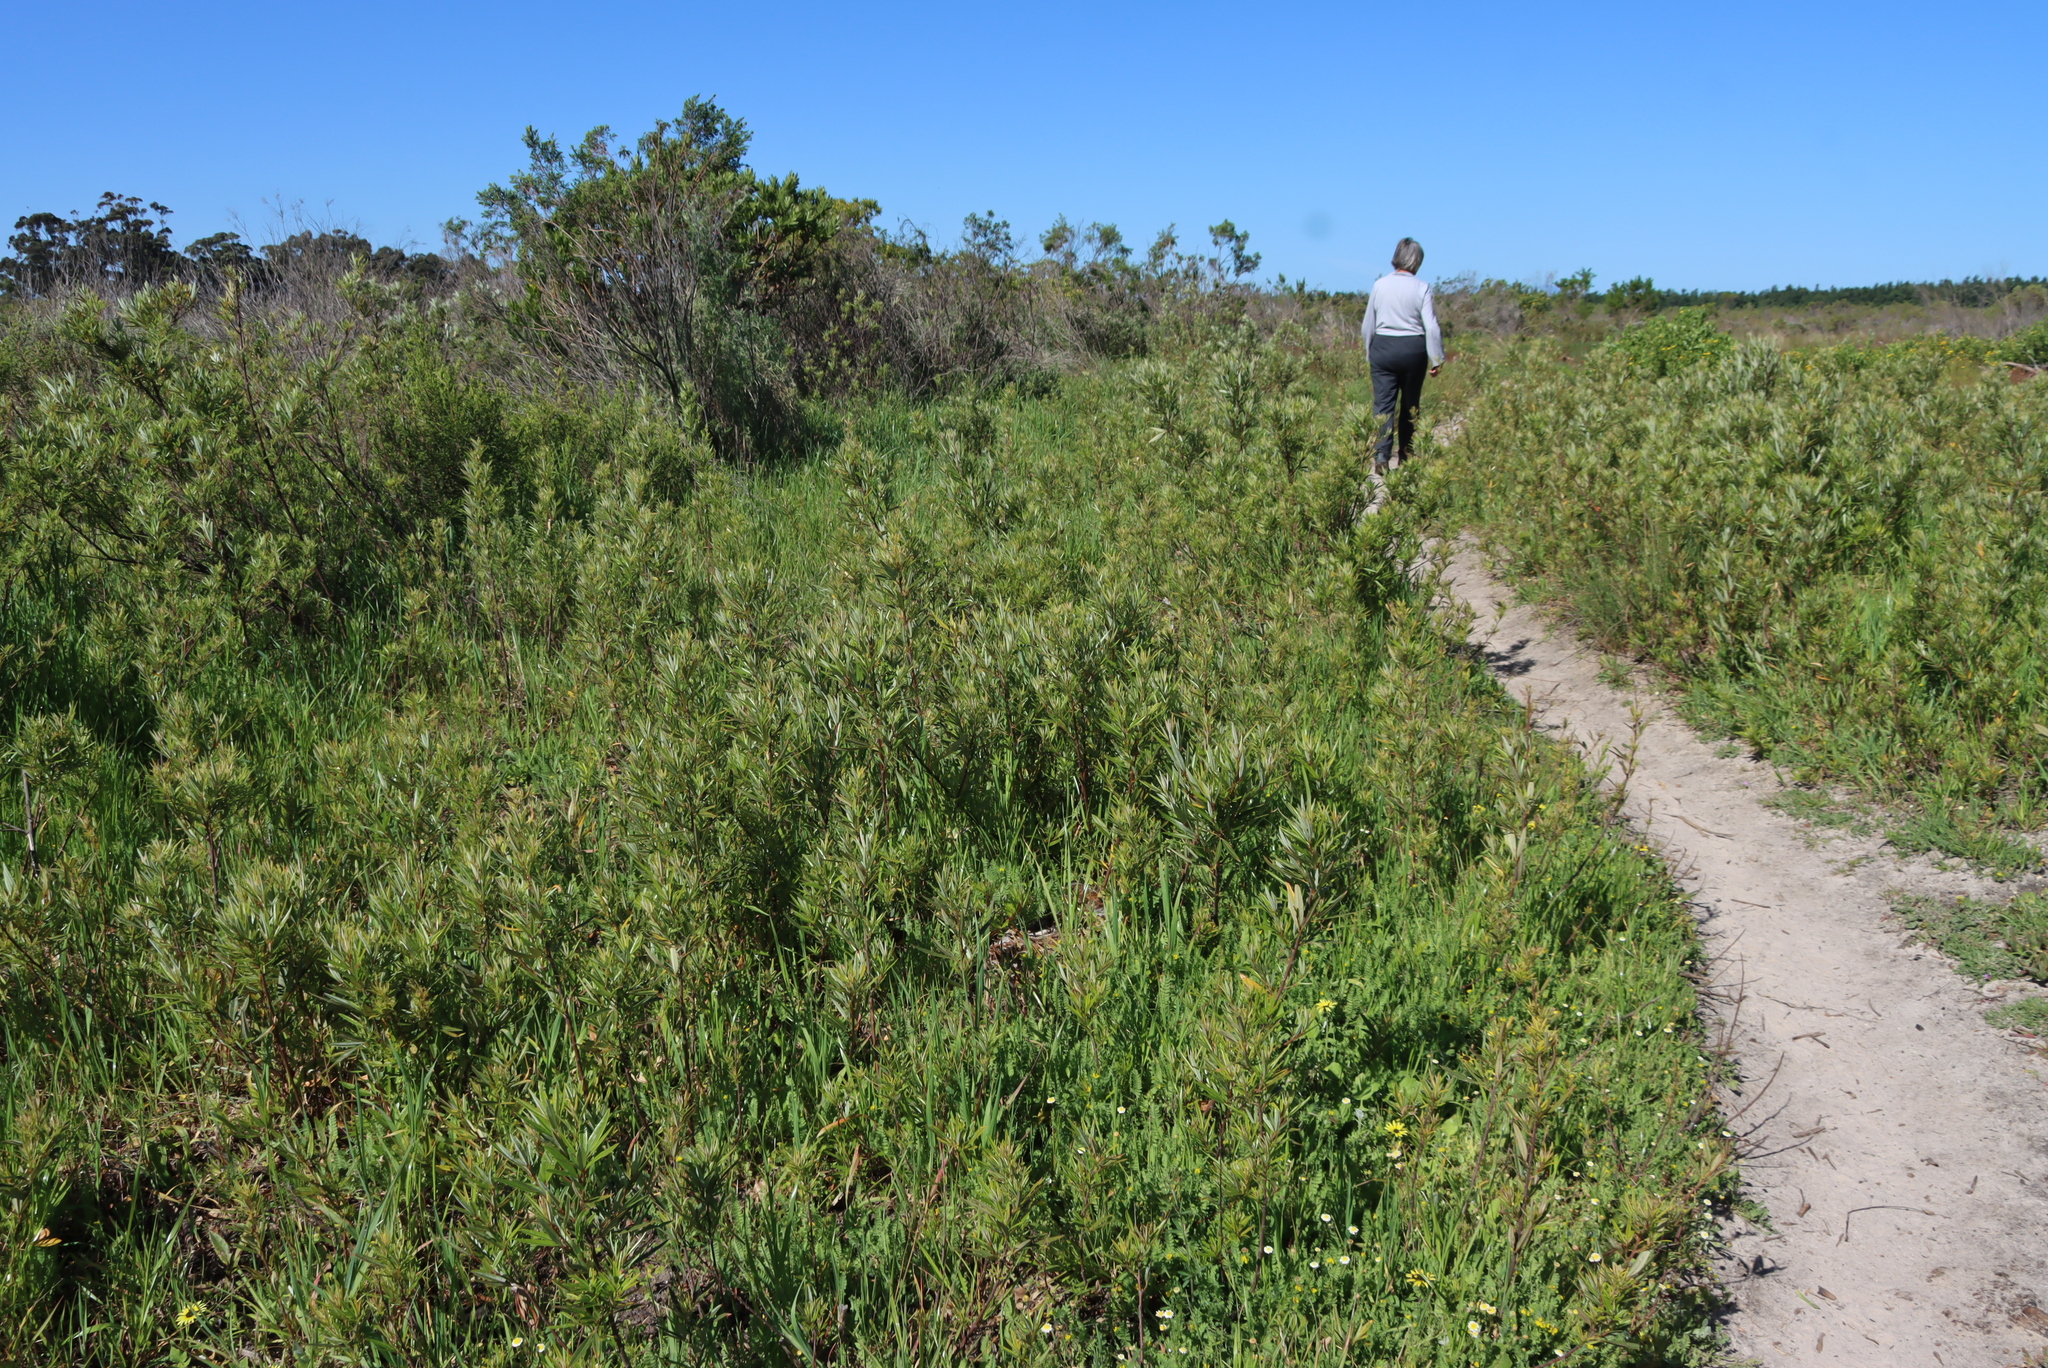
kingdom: Plantae
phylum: Tracheophyta
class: Magnoliopsida
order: Sapindales
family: Anacardiaceae
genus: Searsia
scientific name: Searsia angustifolia
